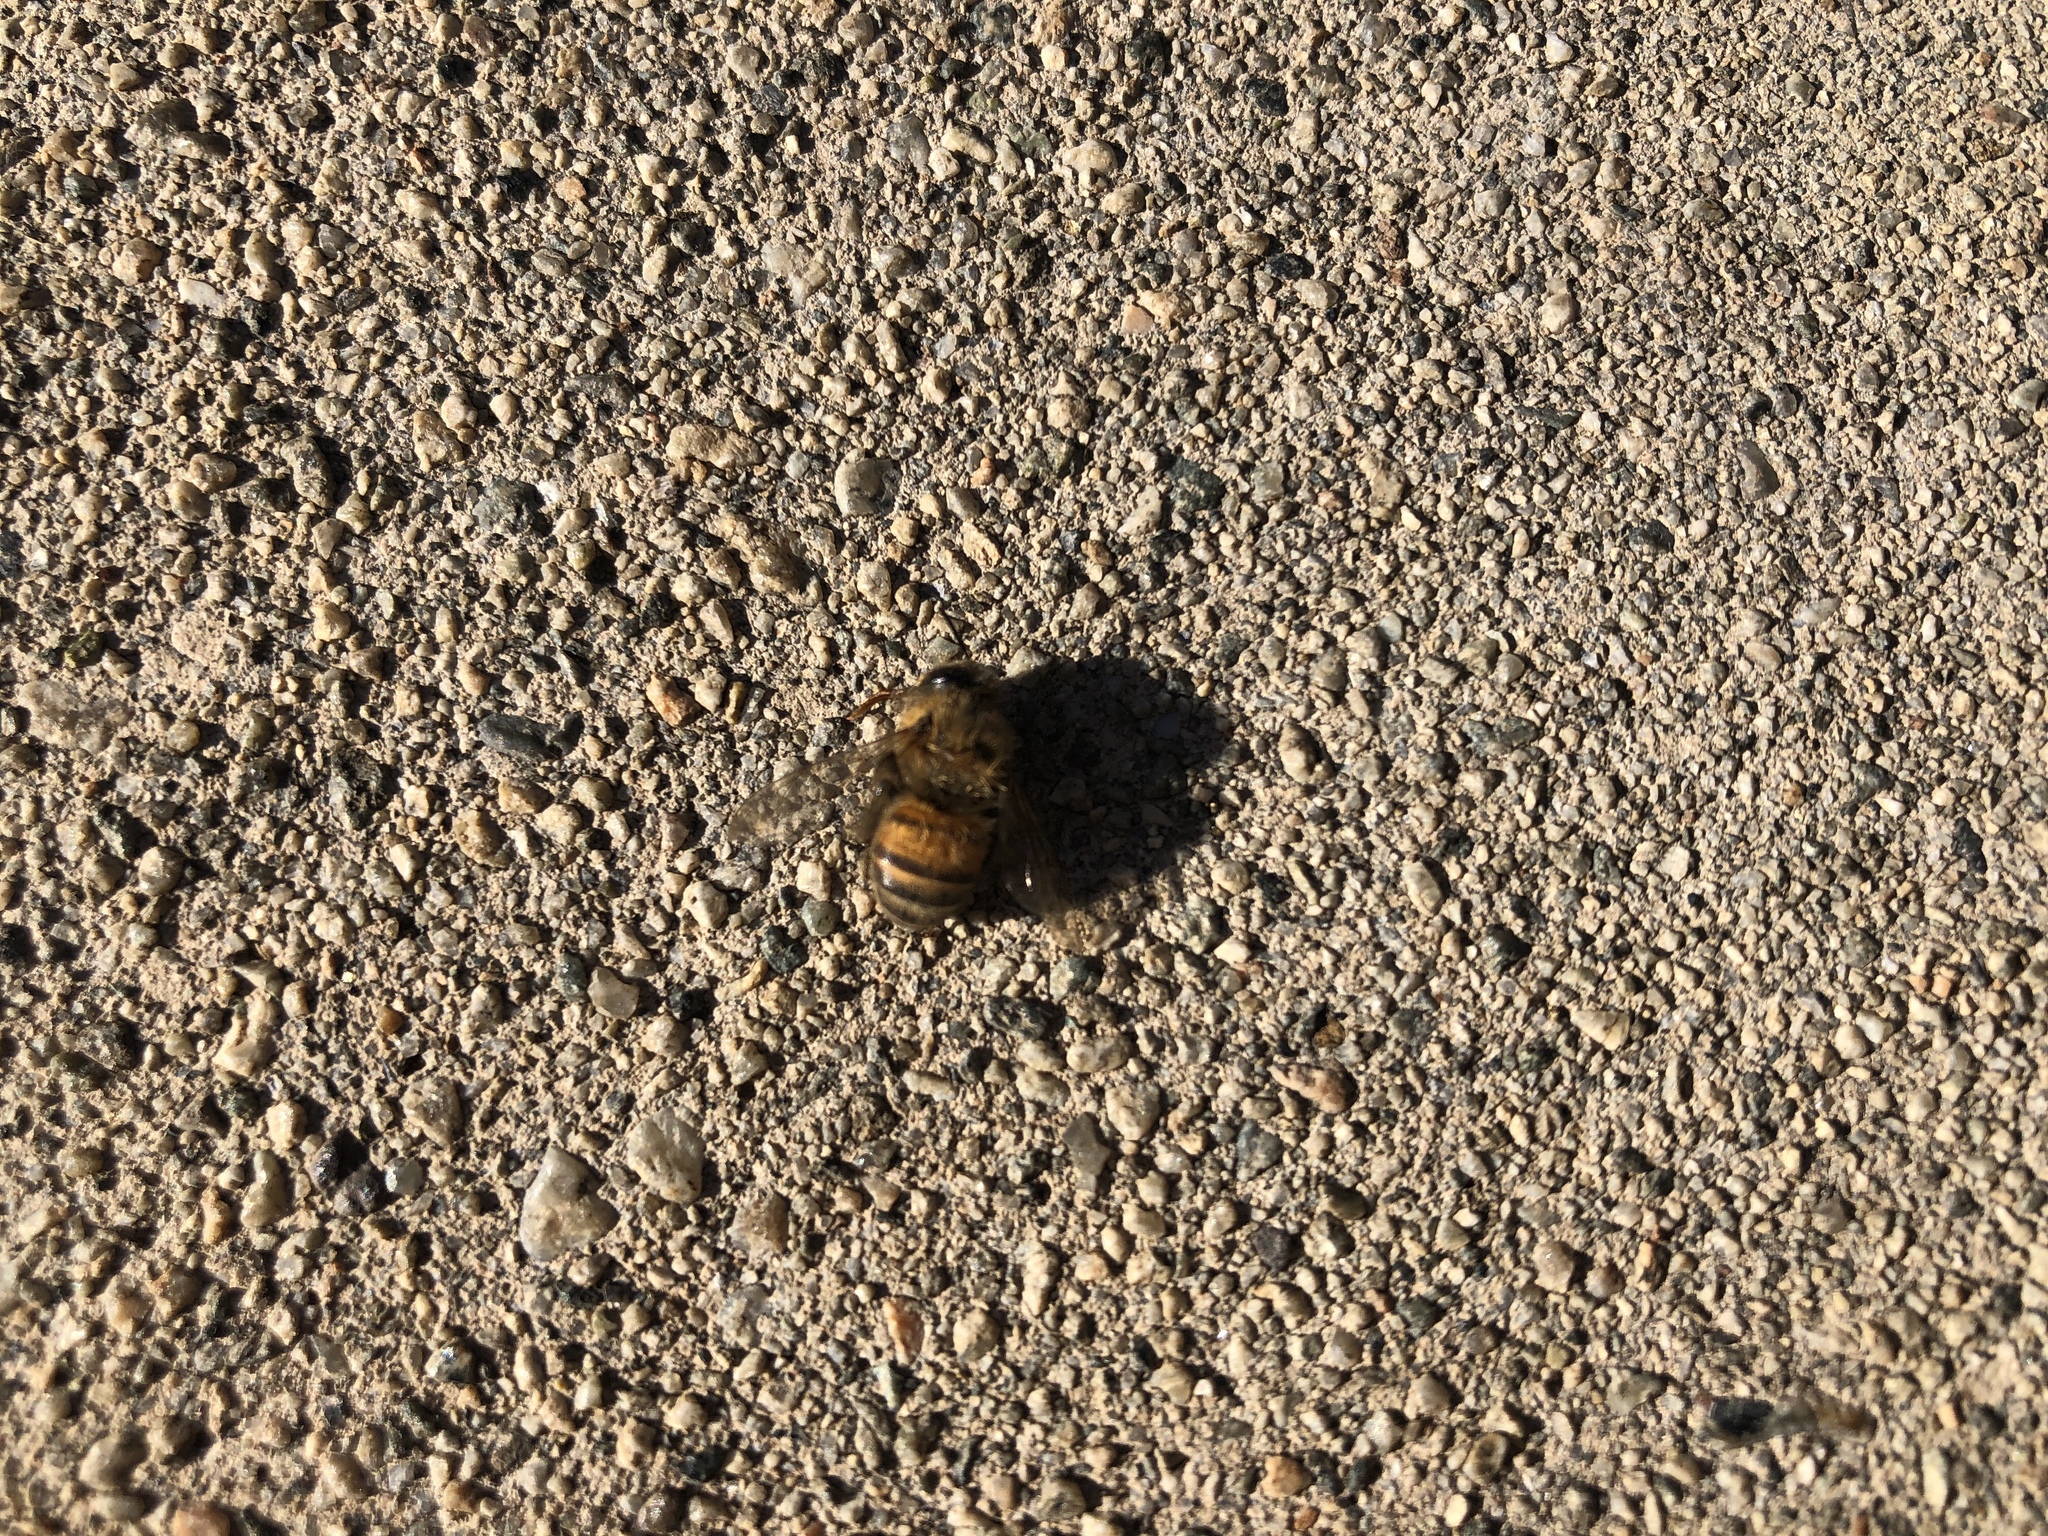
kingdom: Animalia
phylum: Arthropoda
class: Insecta
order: Hymenoptera
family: Apidae
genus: Apis
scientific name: Apis mellifera
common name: Honey bee
